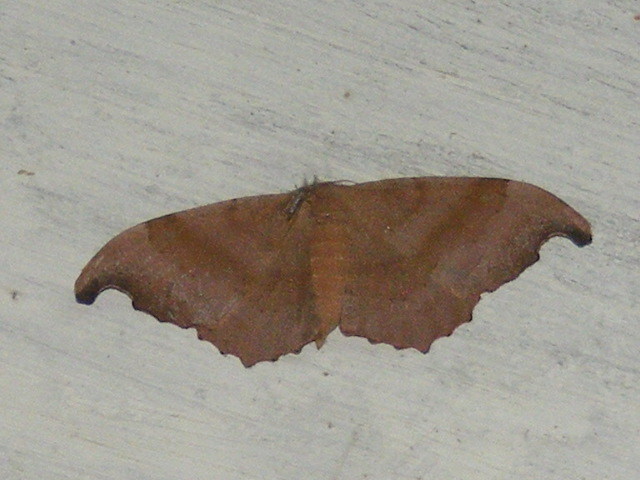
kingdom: Animalia
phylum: Arthropoda
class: Insecta
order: Lepidoptera
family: Geometridae
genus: Hyposidra
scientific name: Hyposidra talaca
